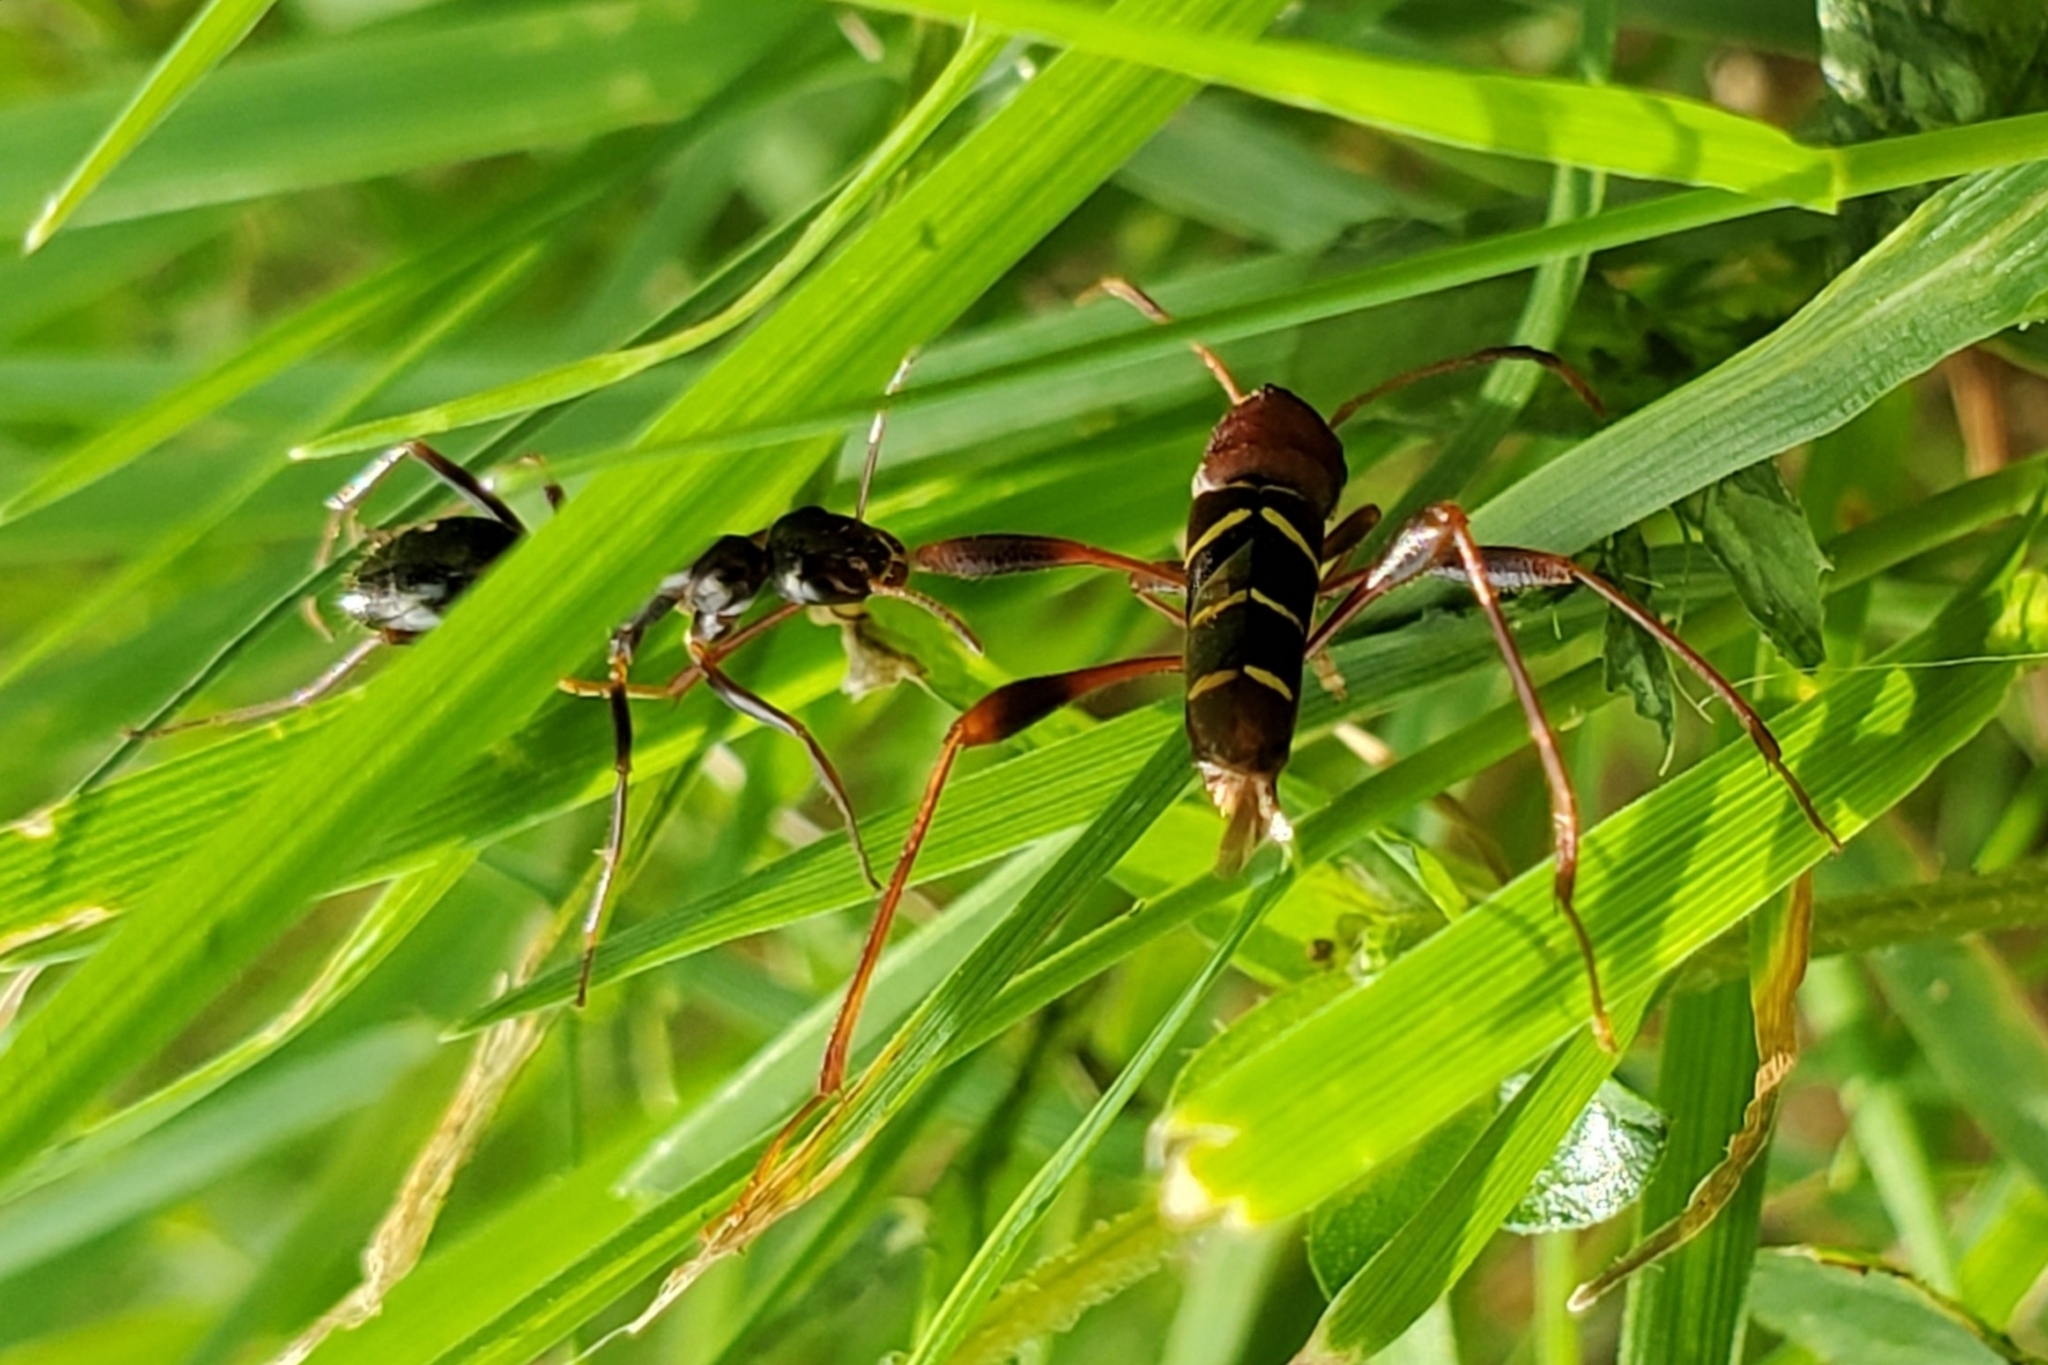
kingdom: Animalia
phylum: Arthropoda
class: Insecta
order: Coleoptera
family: Cerambycidae
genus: Neoclytus
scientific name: Neoclytus acuminatus
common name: Read-headed ash borer
